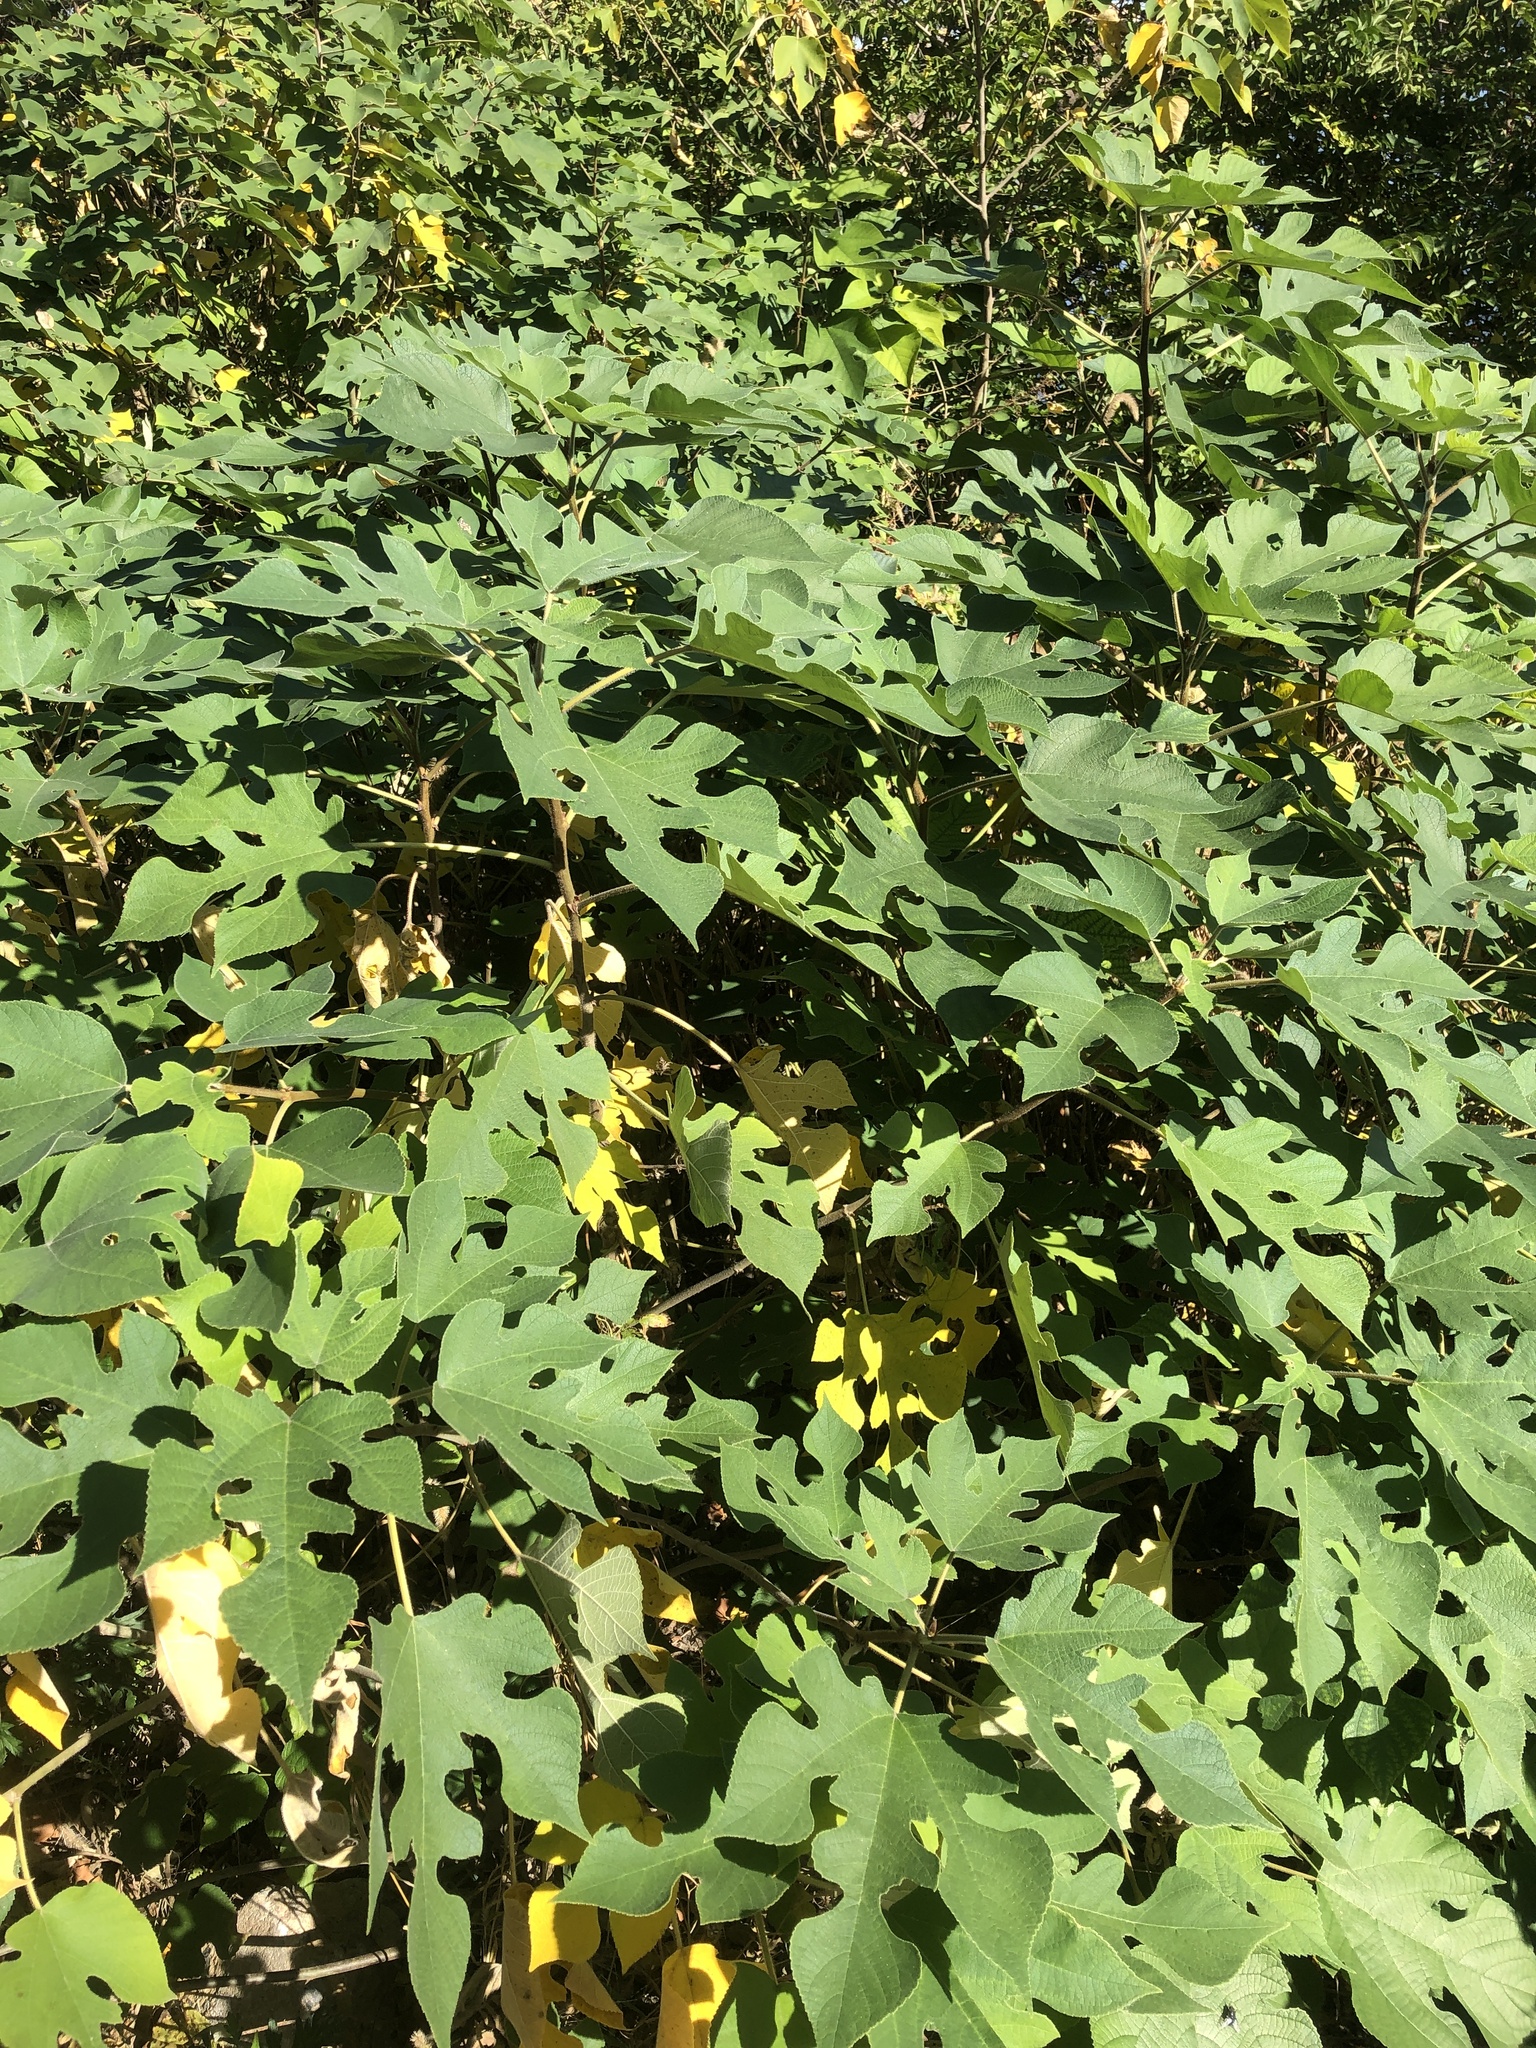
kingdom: Plantae
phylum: Tracheophyta
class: Magnoliopsida
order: Rosales
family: Moraceae
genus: Broussonetia
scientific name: Broussonetia papyrifera
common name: Paper mulberry
